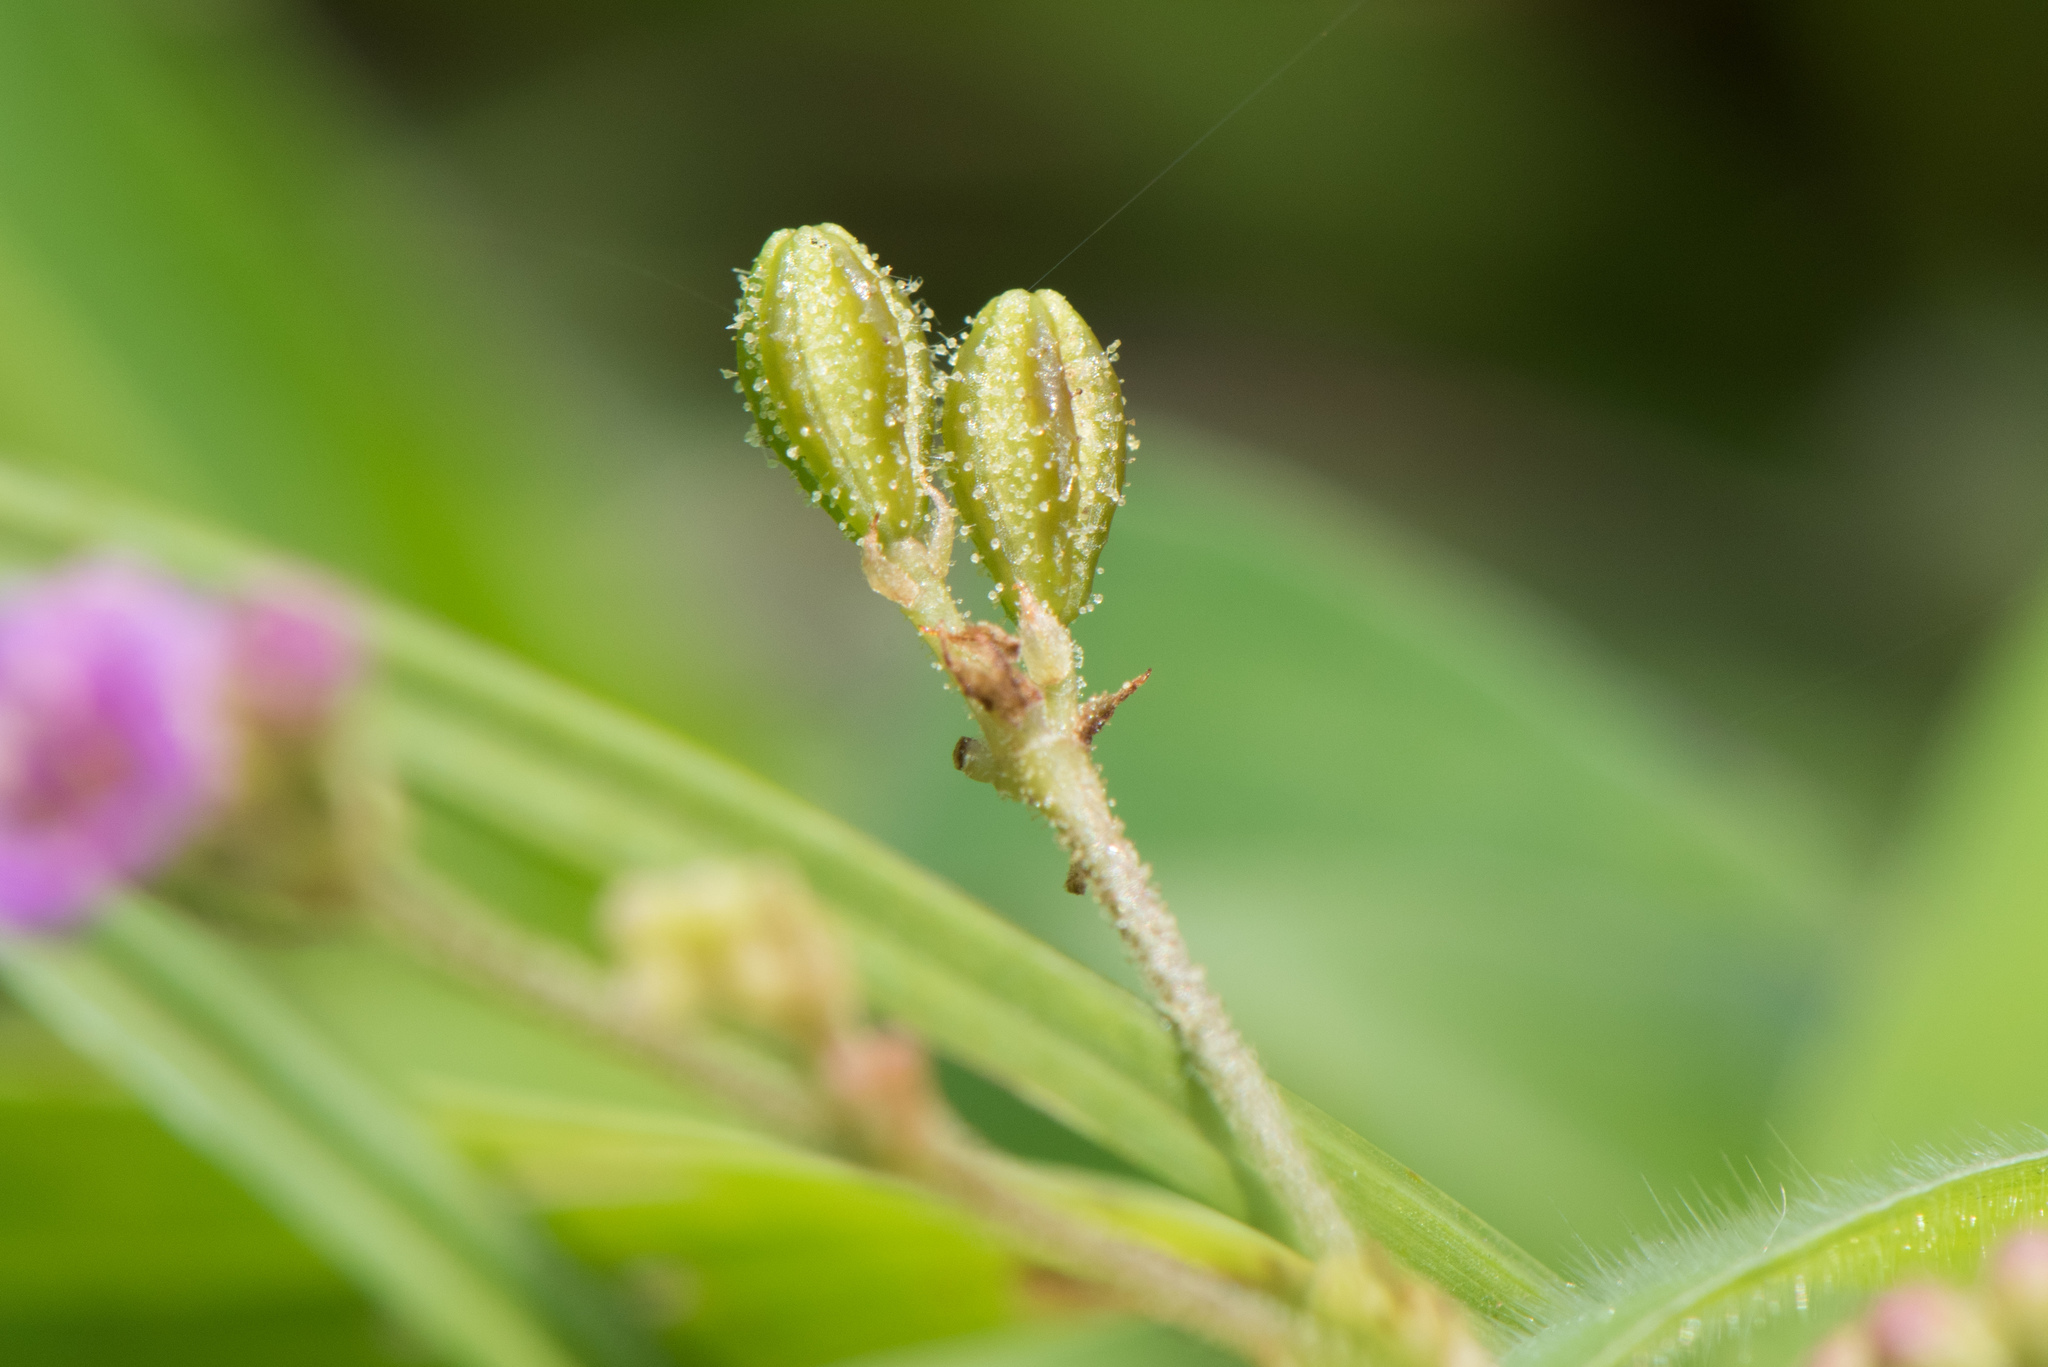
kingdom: Plantae
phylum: Tracheophyta
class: Magnoliopsida
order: Caryophyllales
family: Nyctaginaceae
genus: Boerhavia
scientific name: Boerhavia coccinea
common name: Scarlet spiderling
